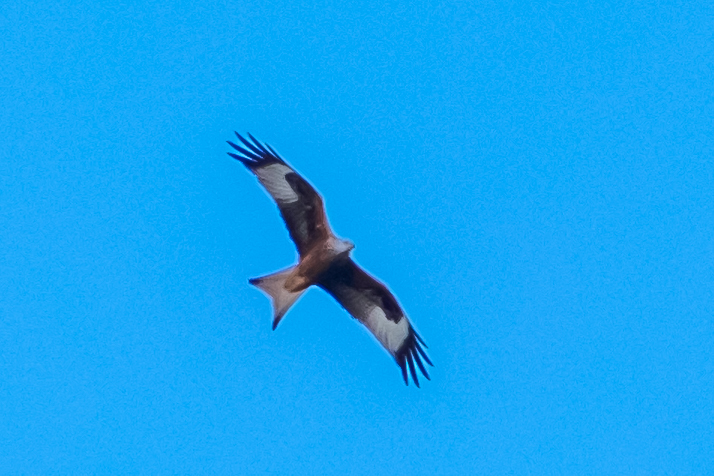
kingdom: Animalia
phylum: Chordata
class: Aves
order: Accipitriformes
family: Accipitridae
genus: Milvus
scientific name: Milvus milvus
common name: Red kite
